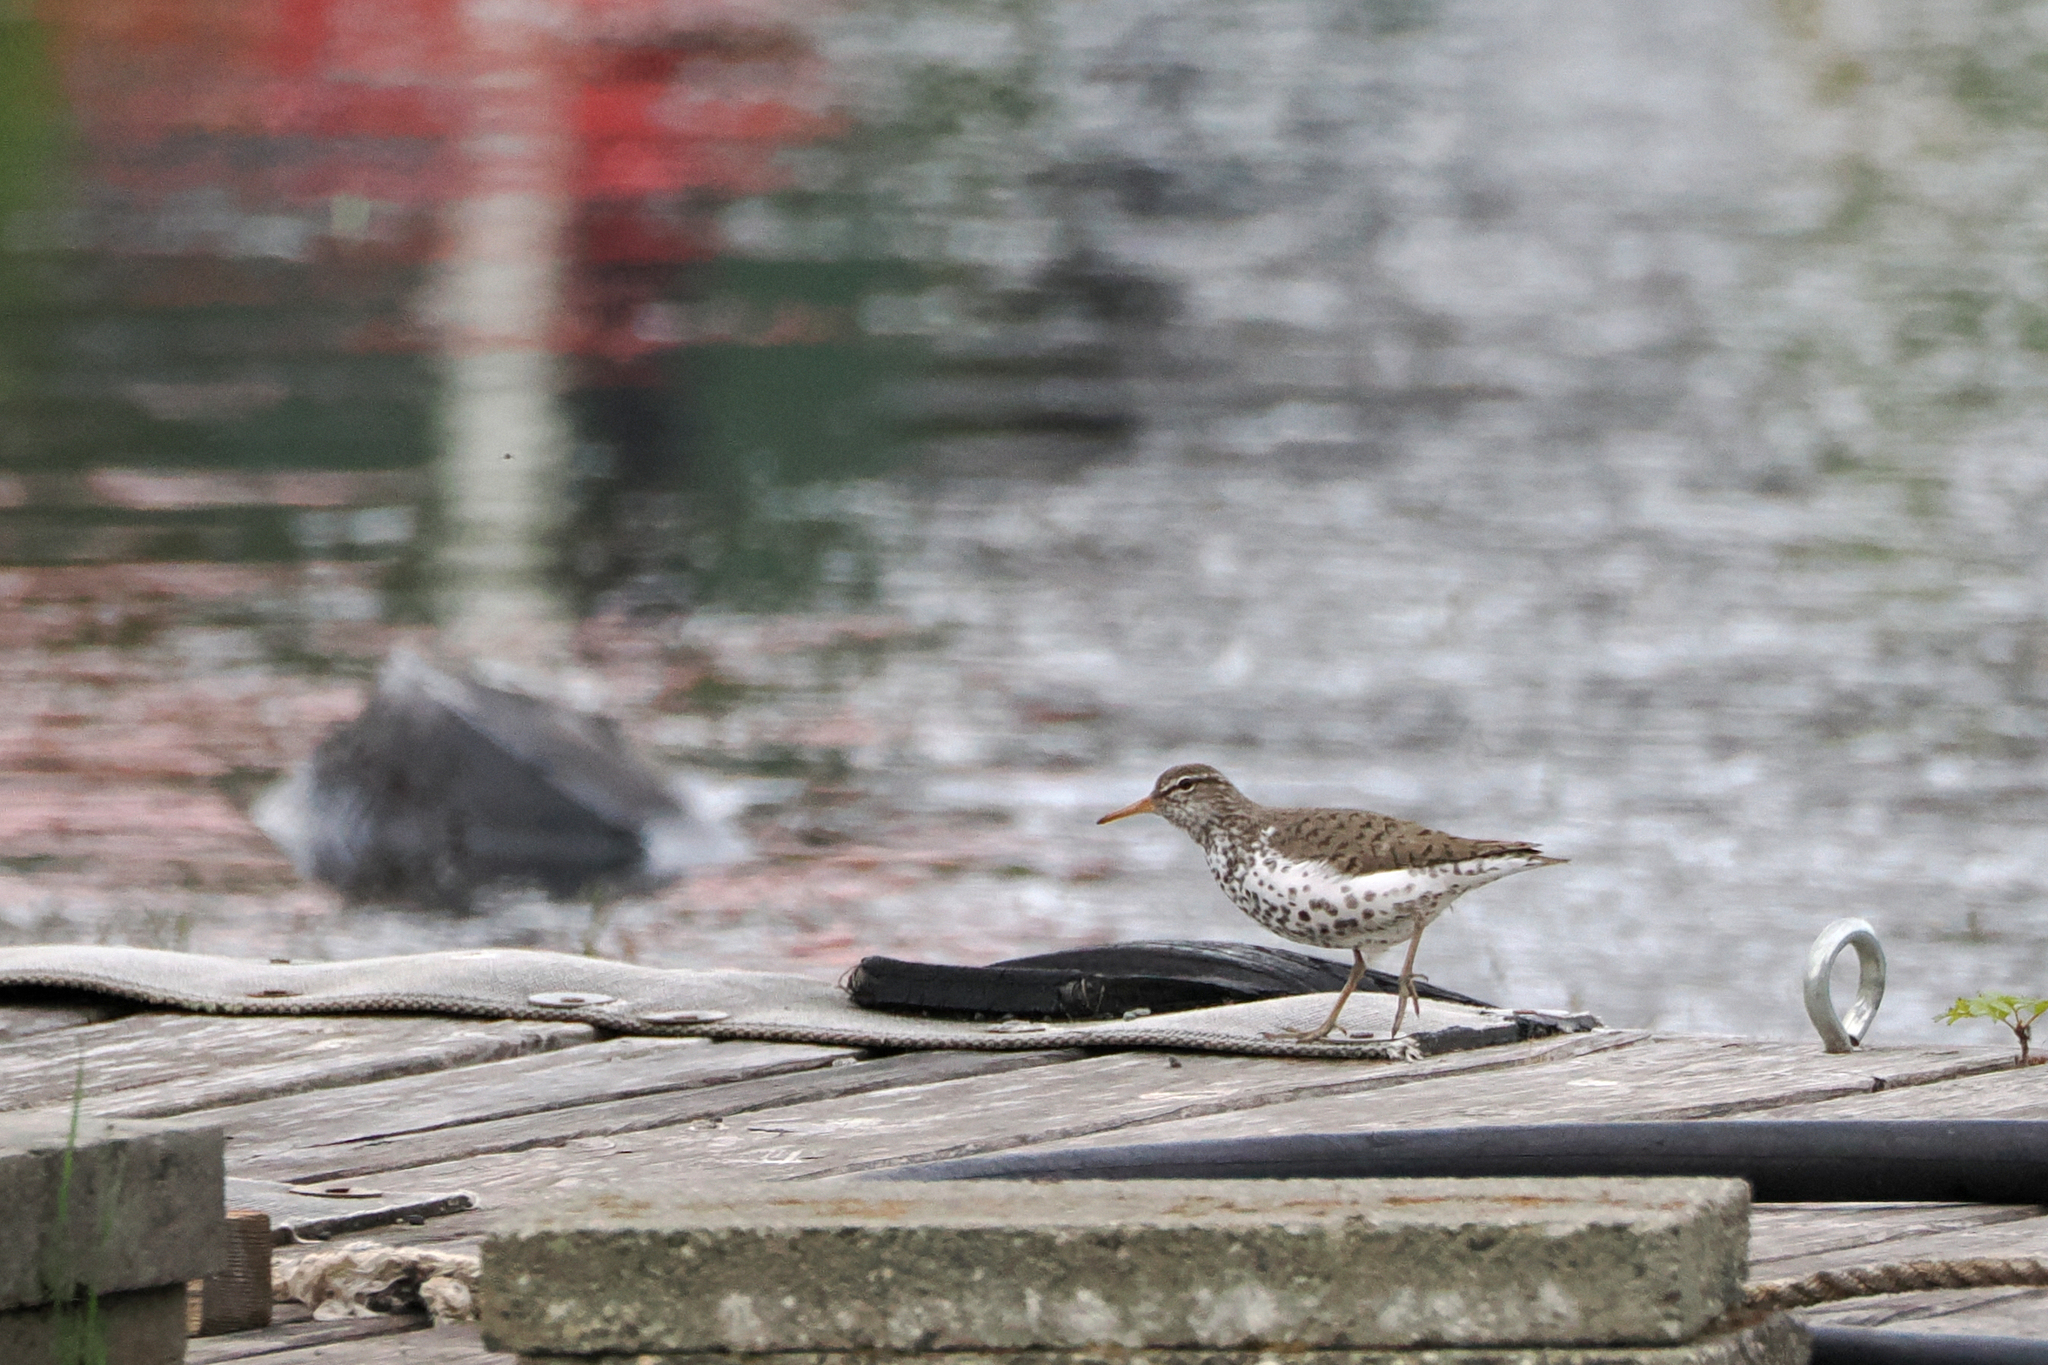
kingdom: Animalia
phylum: Chordata
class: Aves
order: Charadriiformes
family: Scolopacidae
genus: Actitis
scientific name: Actitis macularius
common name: Spotted sandpiper
